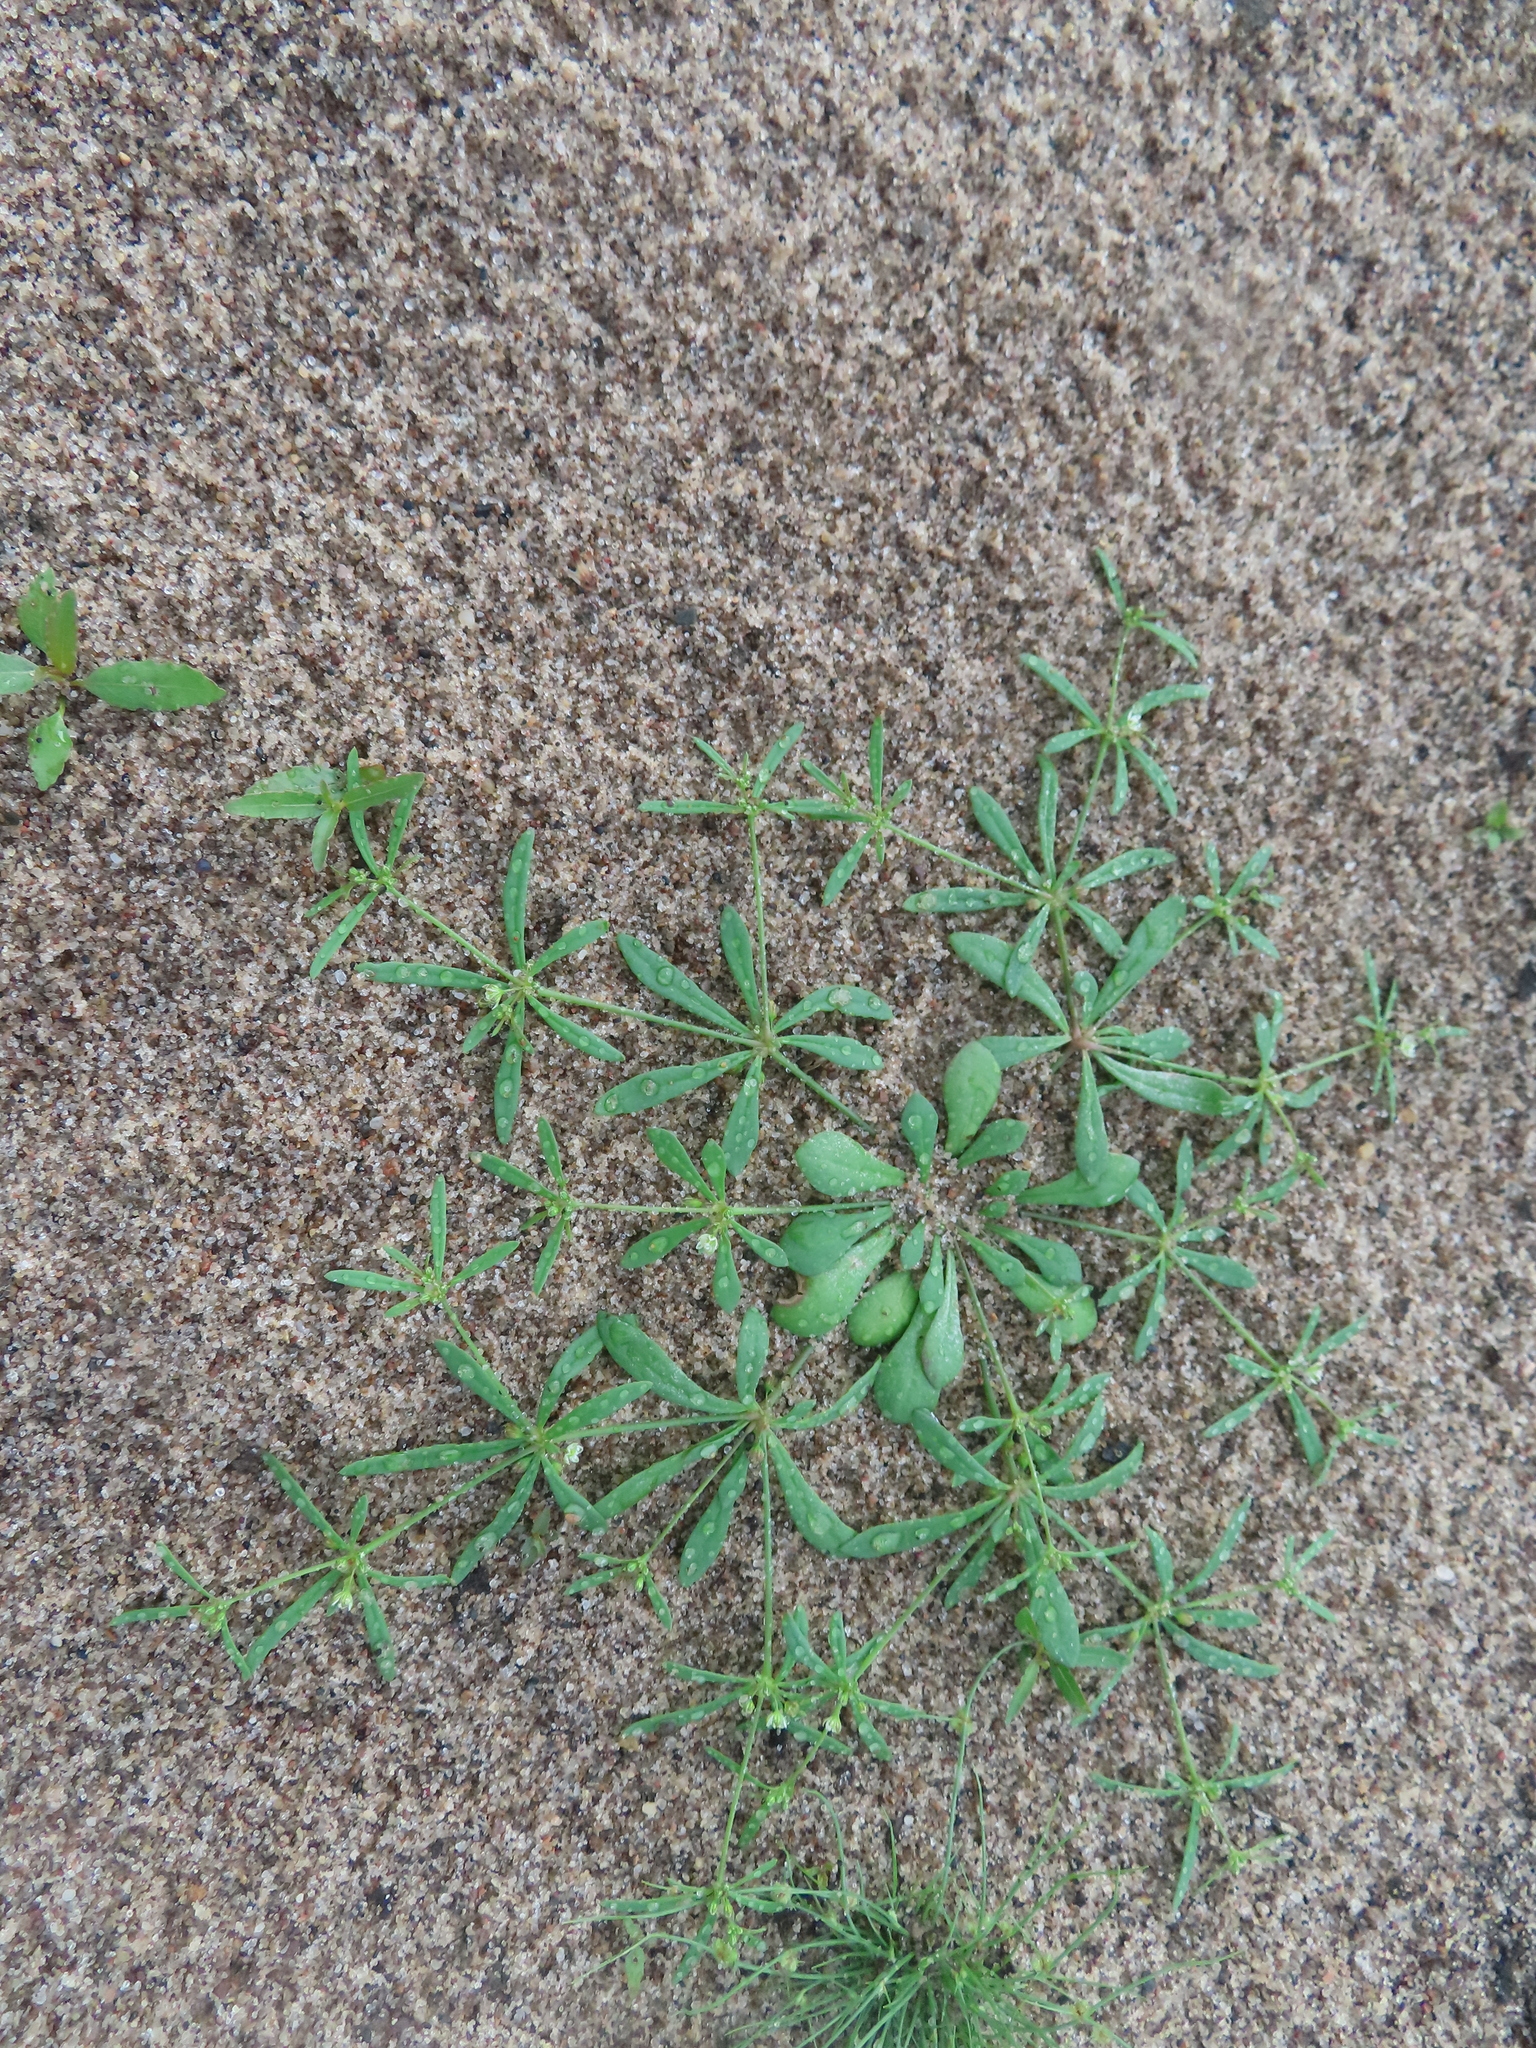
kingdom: Plantae
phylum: Tracheophyta
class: Magnoliopsida
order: Caryophyllales
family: Molluginaceae
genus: Mollugo
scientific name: Mollugo verticillata
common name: Green carpetweed
